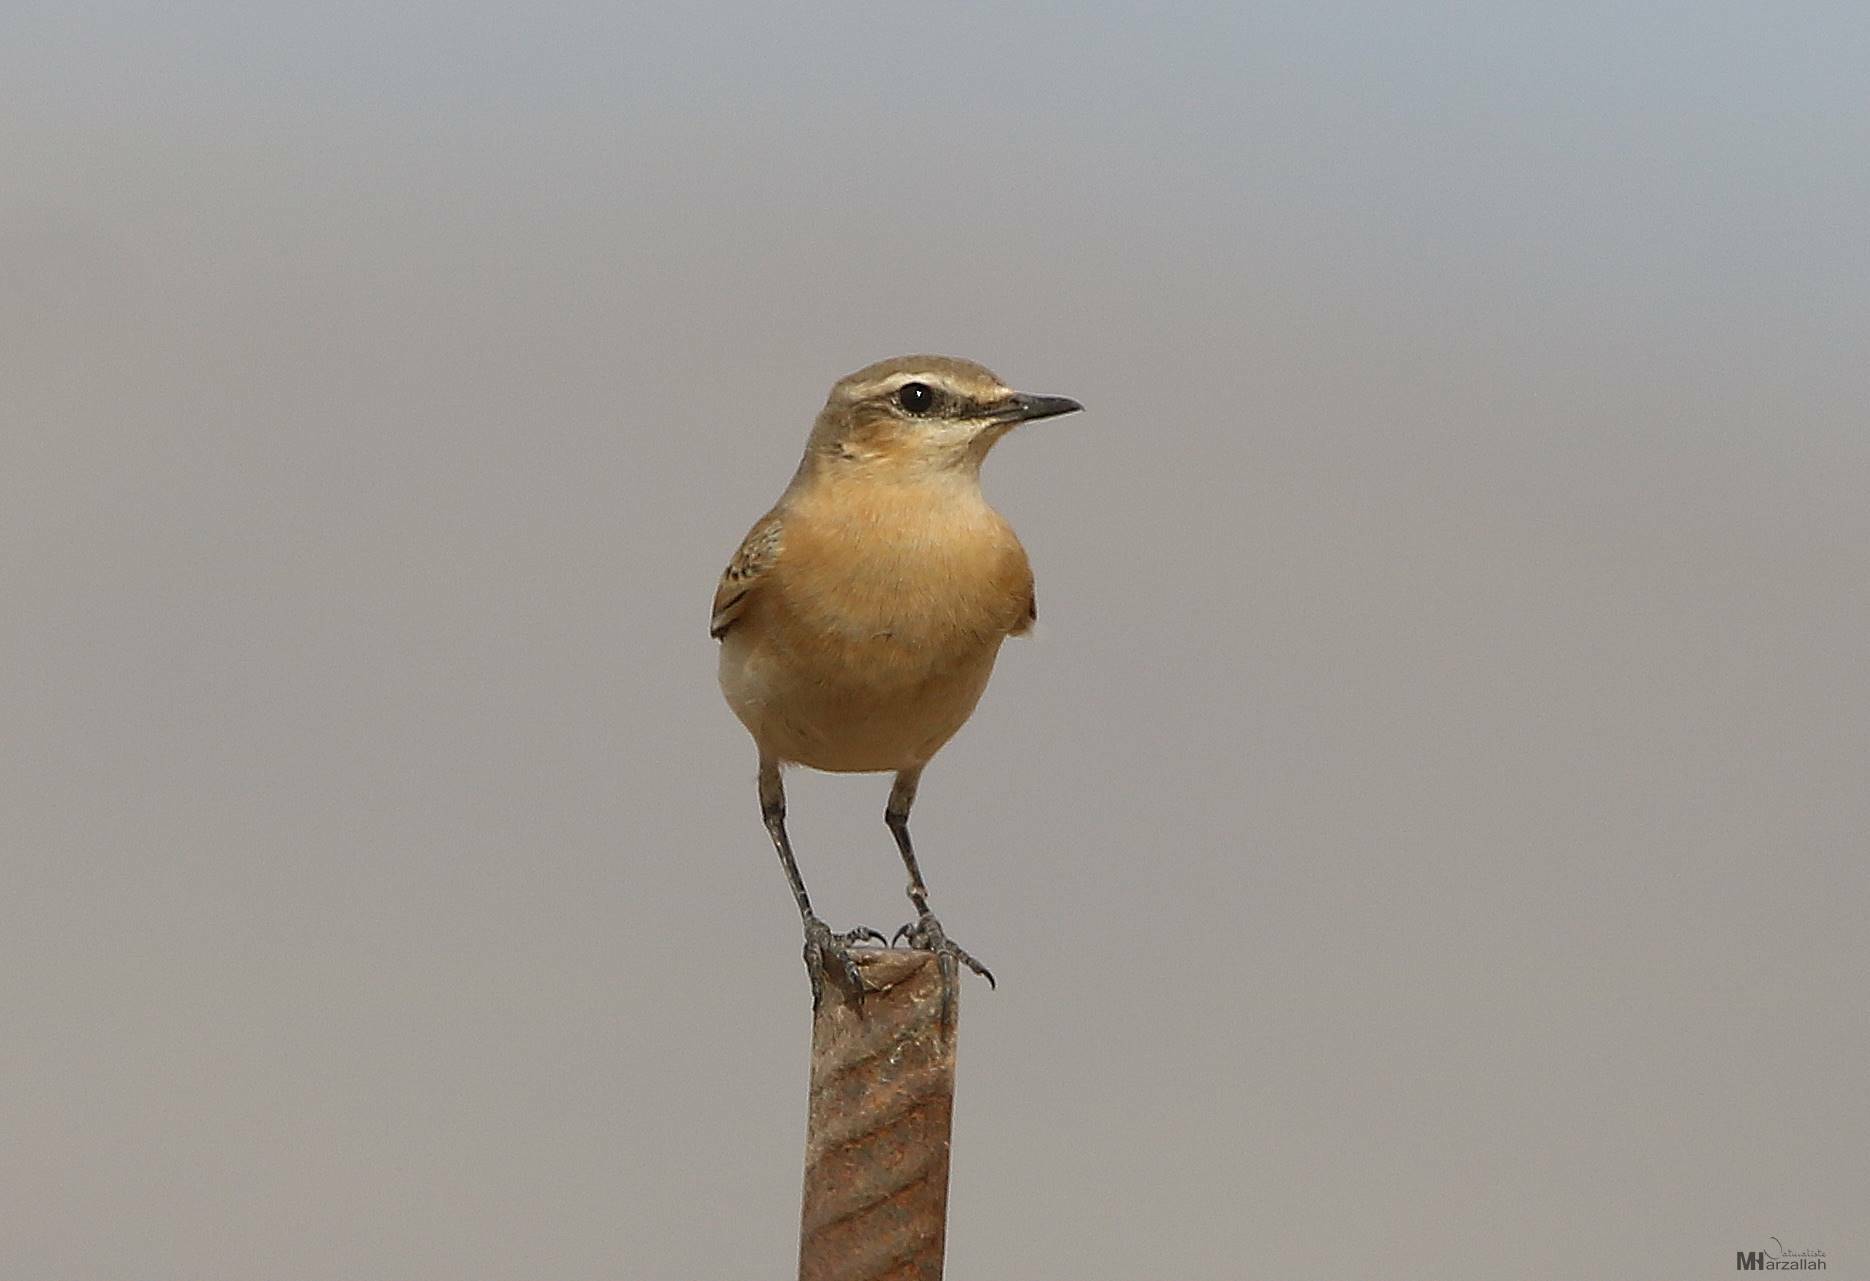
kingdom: Animalia
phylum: Chordata
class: Aves
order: Passeriformes
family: Muscicapidae
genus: Oenanthe
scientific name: Oenanthe oenanthe
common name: Northern wheatear
